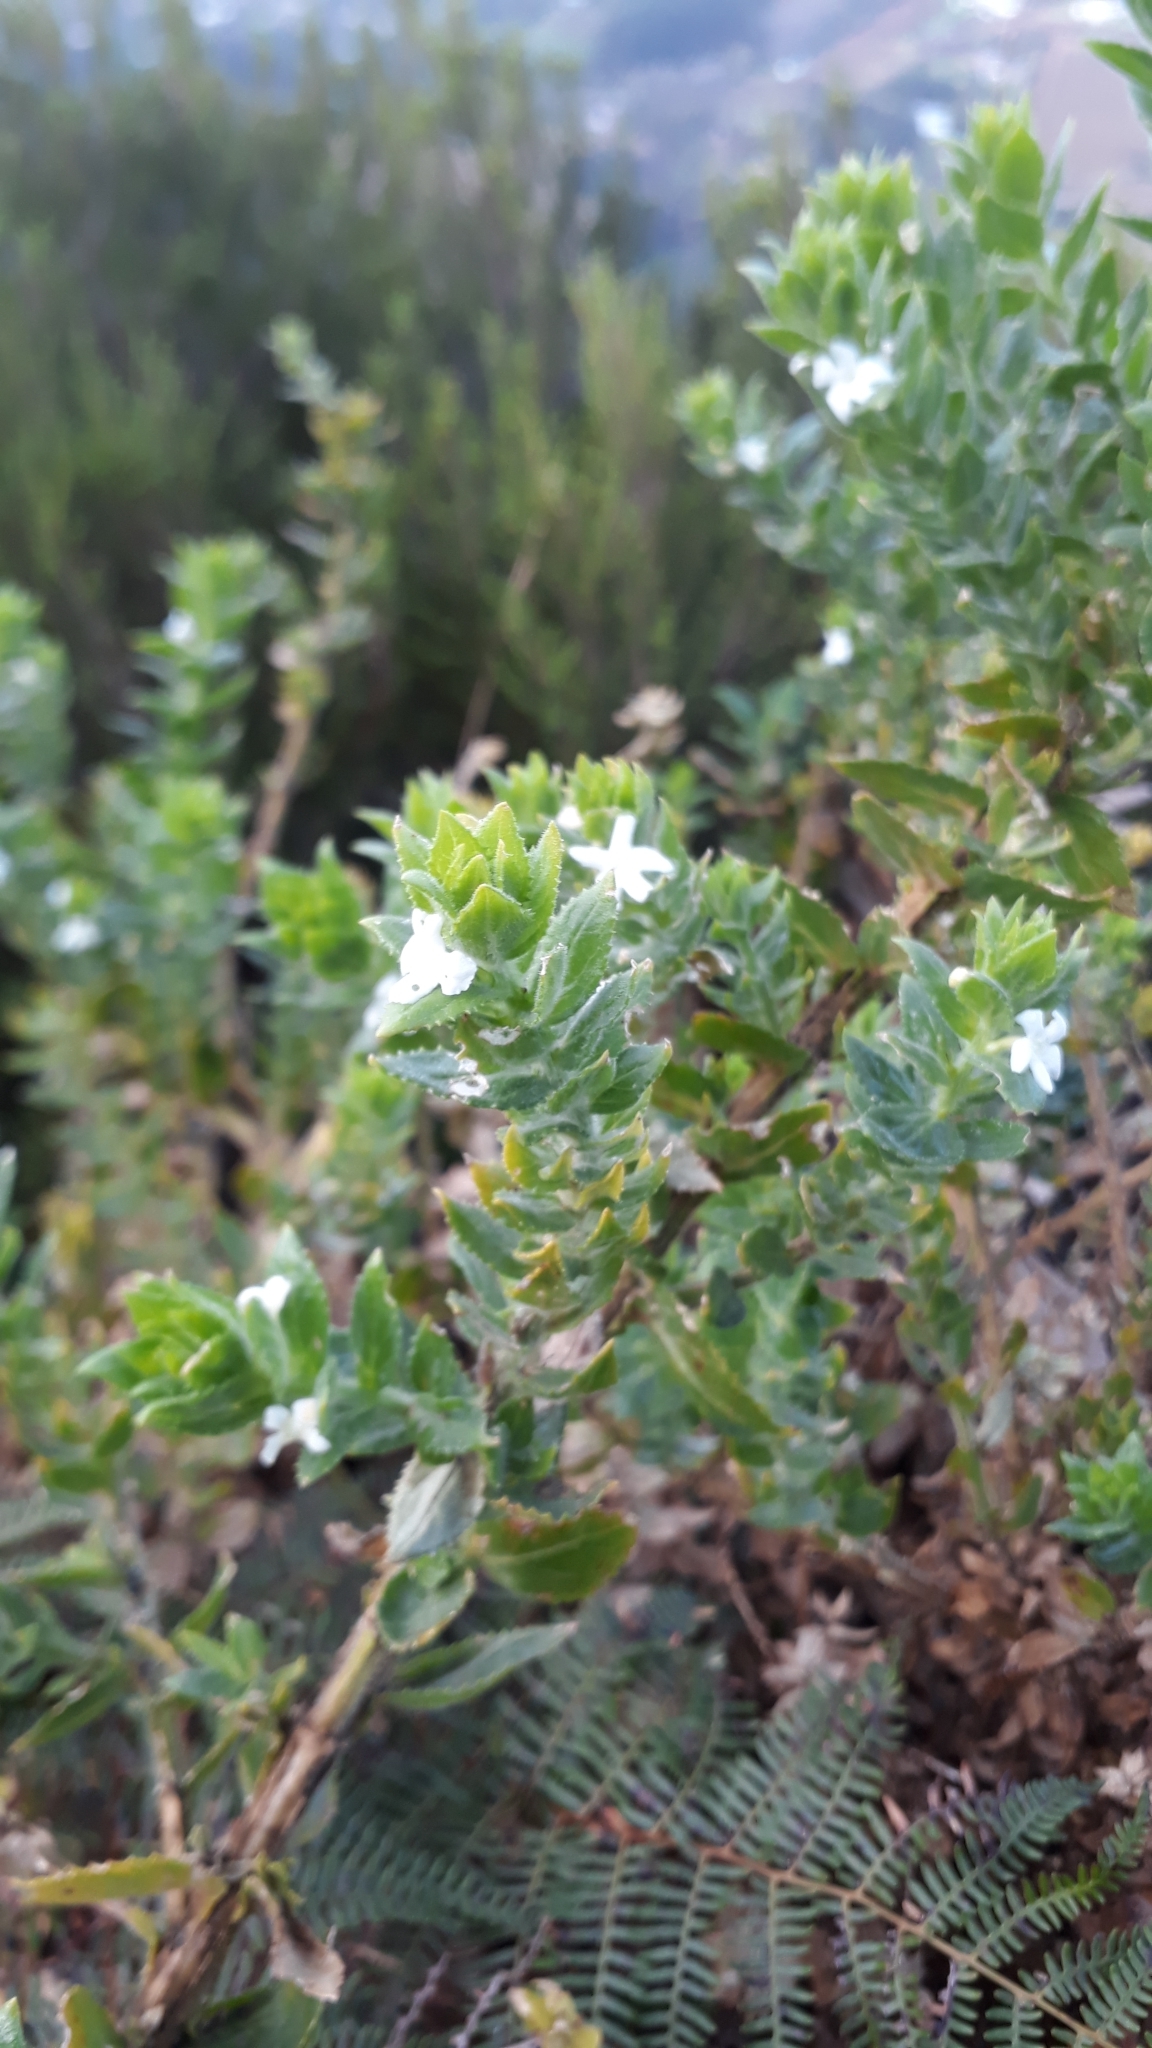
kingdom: Plantae
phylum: Tracheophyta
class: Magnoliopsida
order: Lamiales
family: Scrophulariaceae
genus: Oftia
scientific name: Oftia africana
